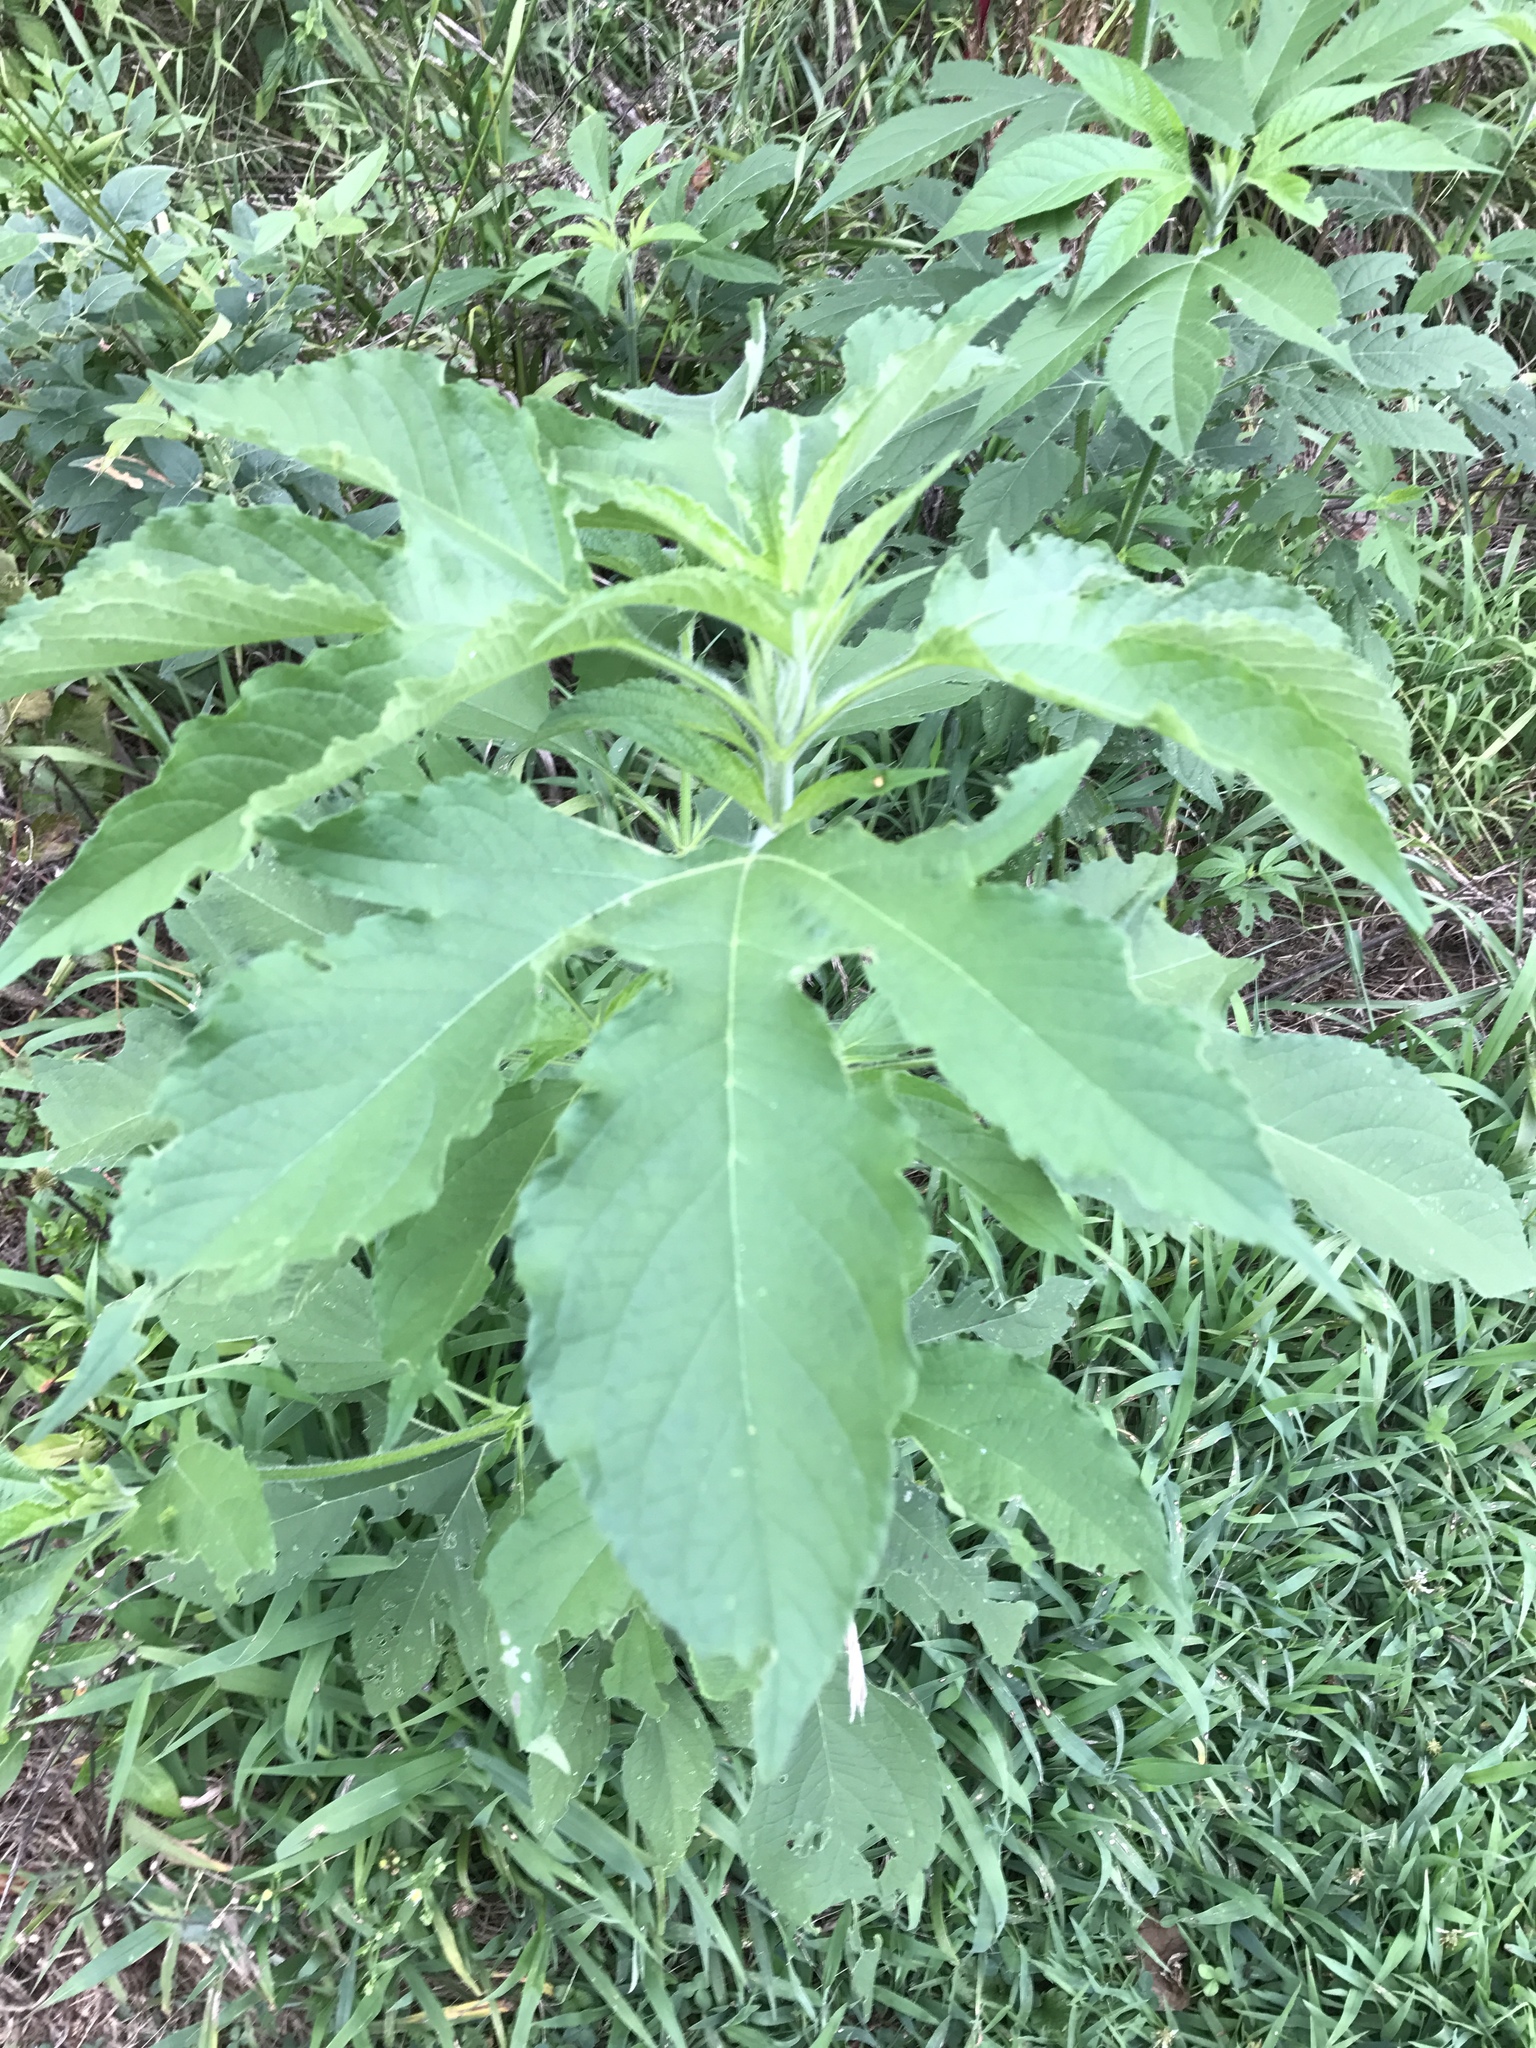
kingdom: Plantae
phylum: Tracheophyta
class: Magnoliopsida
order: Asterales
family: Asteraceae
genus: Ambrosia
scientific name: Ambrosia trifida
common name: Giant ragweed
